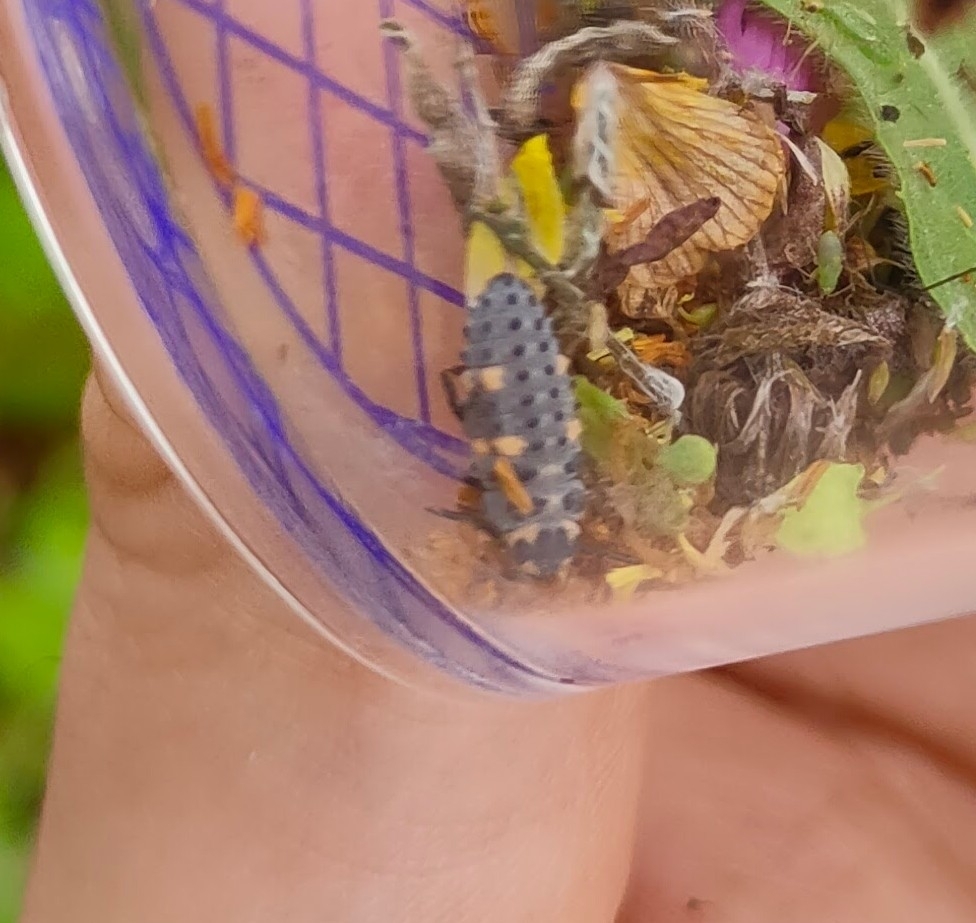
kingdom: Animalia
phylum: Arthropoda
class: Insecta
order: Coleoptera
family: Coccinellidae
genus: Coccinella
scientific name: Coccinella septempunctata
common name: Sevenspotted lady beetle
